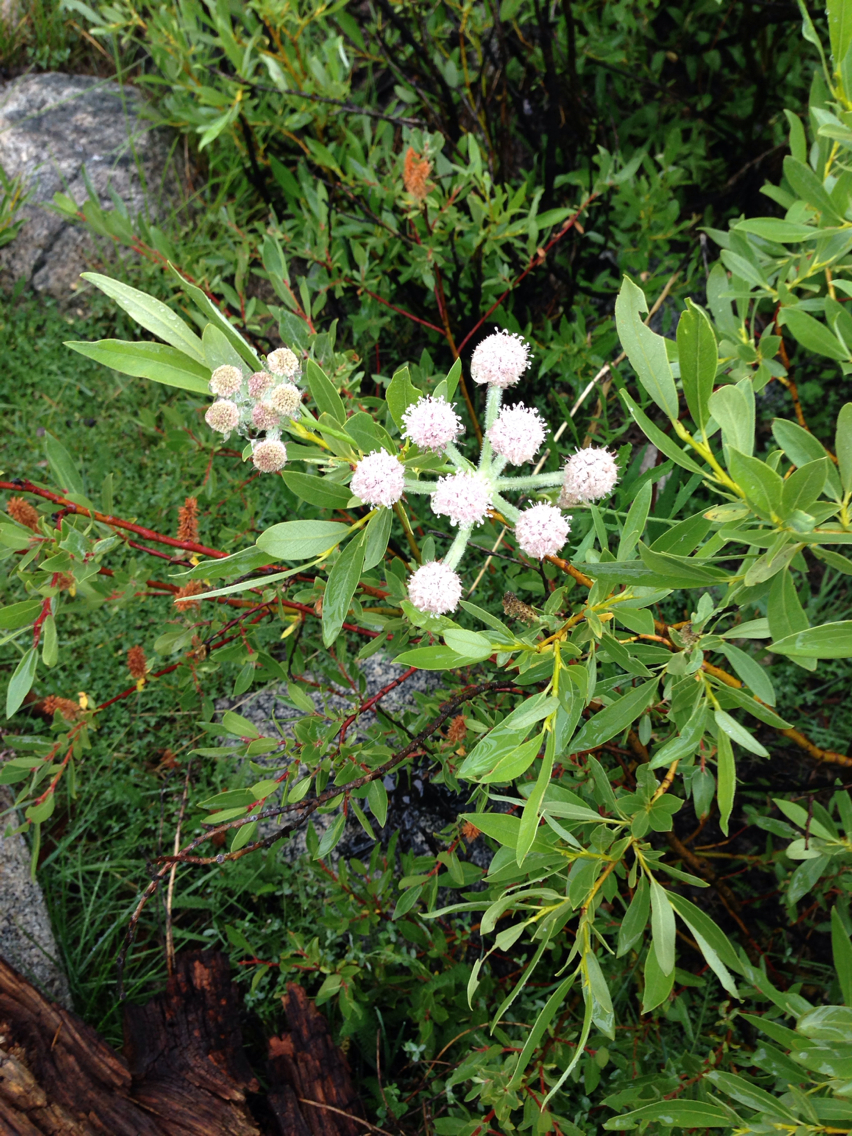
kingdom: Plantae
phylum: Tracheophyta
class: Magnoliopsida
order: Apiales
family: Apiaceae
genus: Angelica
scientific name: Angelica capitellata
